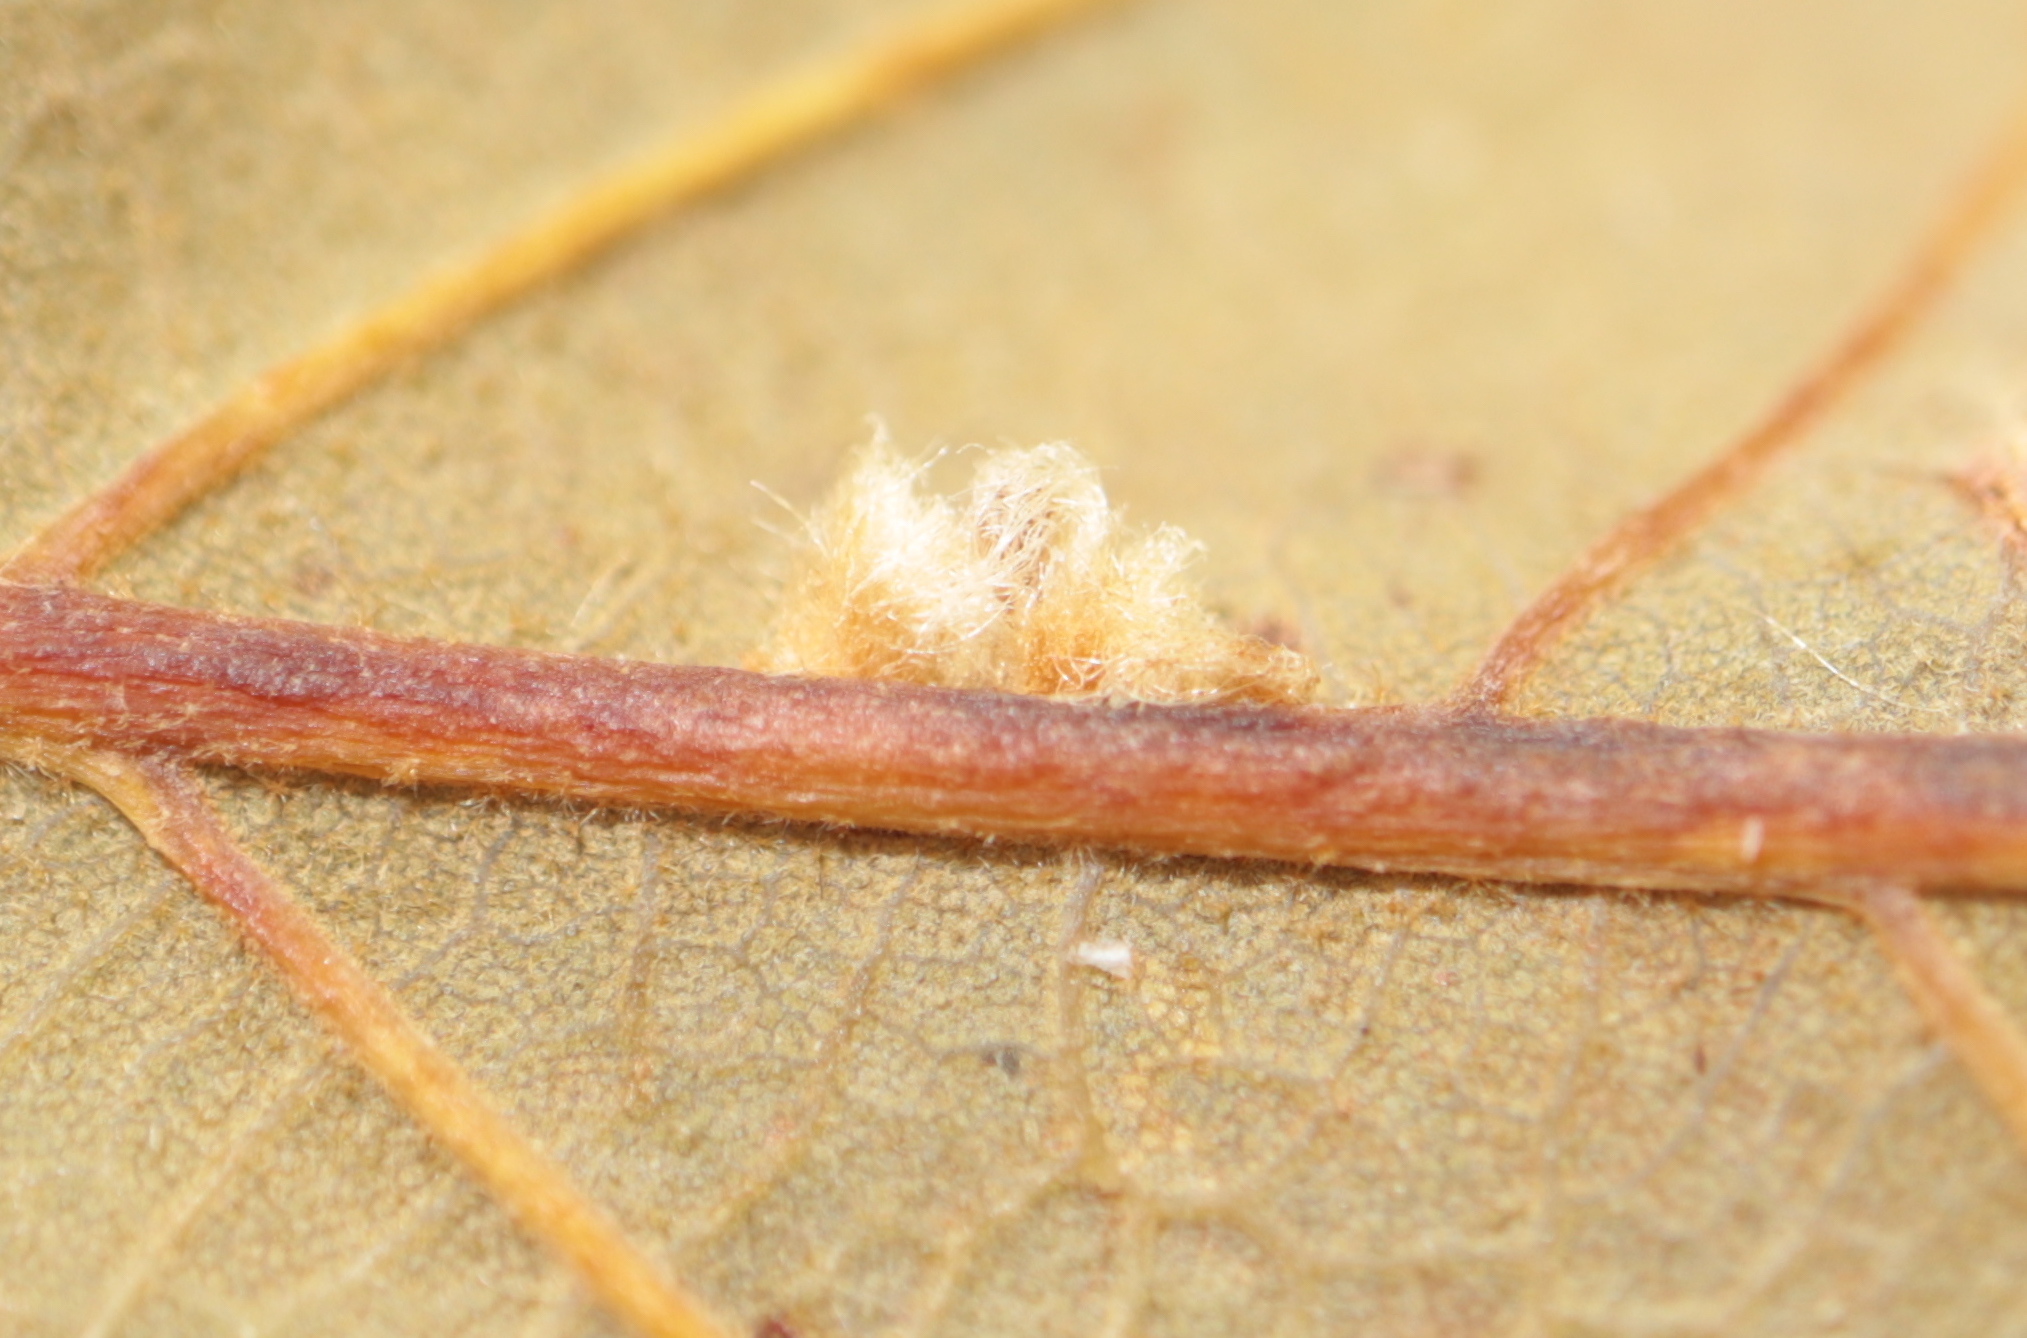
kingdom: Animalia
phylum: Arthropoda
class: Insecta
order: Hymenoptera
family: Cynipidae
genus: Andricus
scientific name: Andricus Druon ignotum
